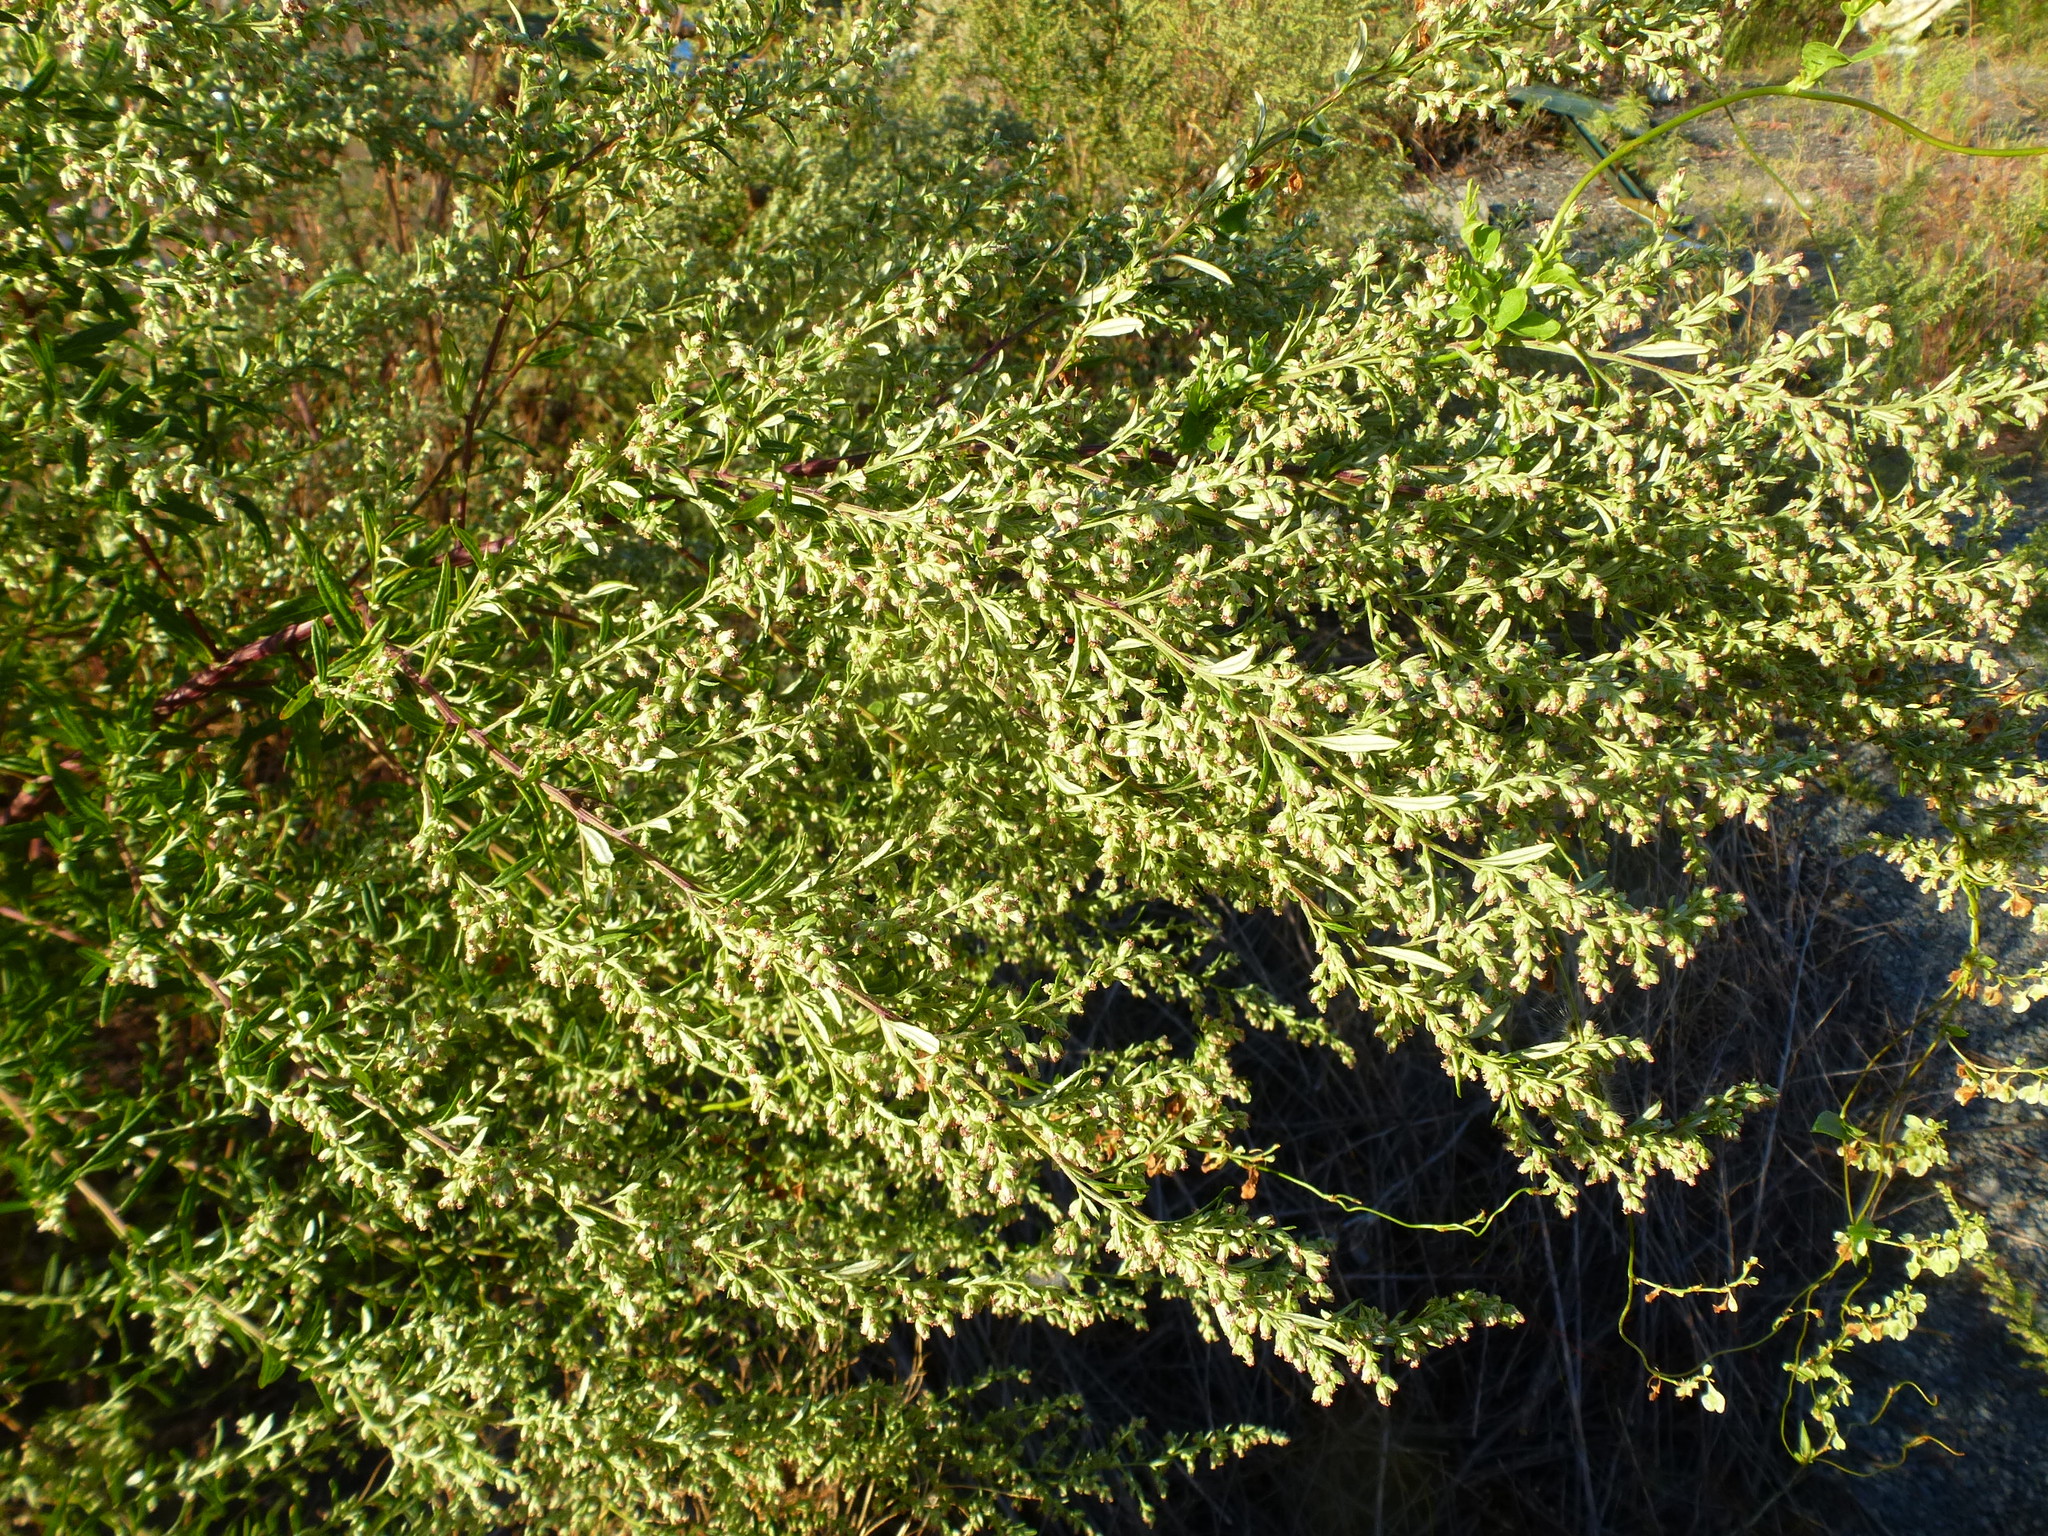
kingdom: Plantae
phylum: Tracheophyta
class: Magnoliopsida
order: Asterales
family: Asteraceae
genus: Artemisia
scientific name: Artemisia vulgaris
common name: Mugwort
